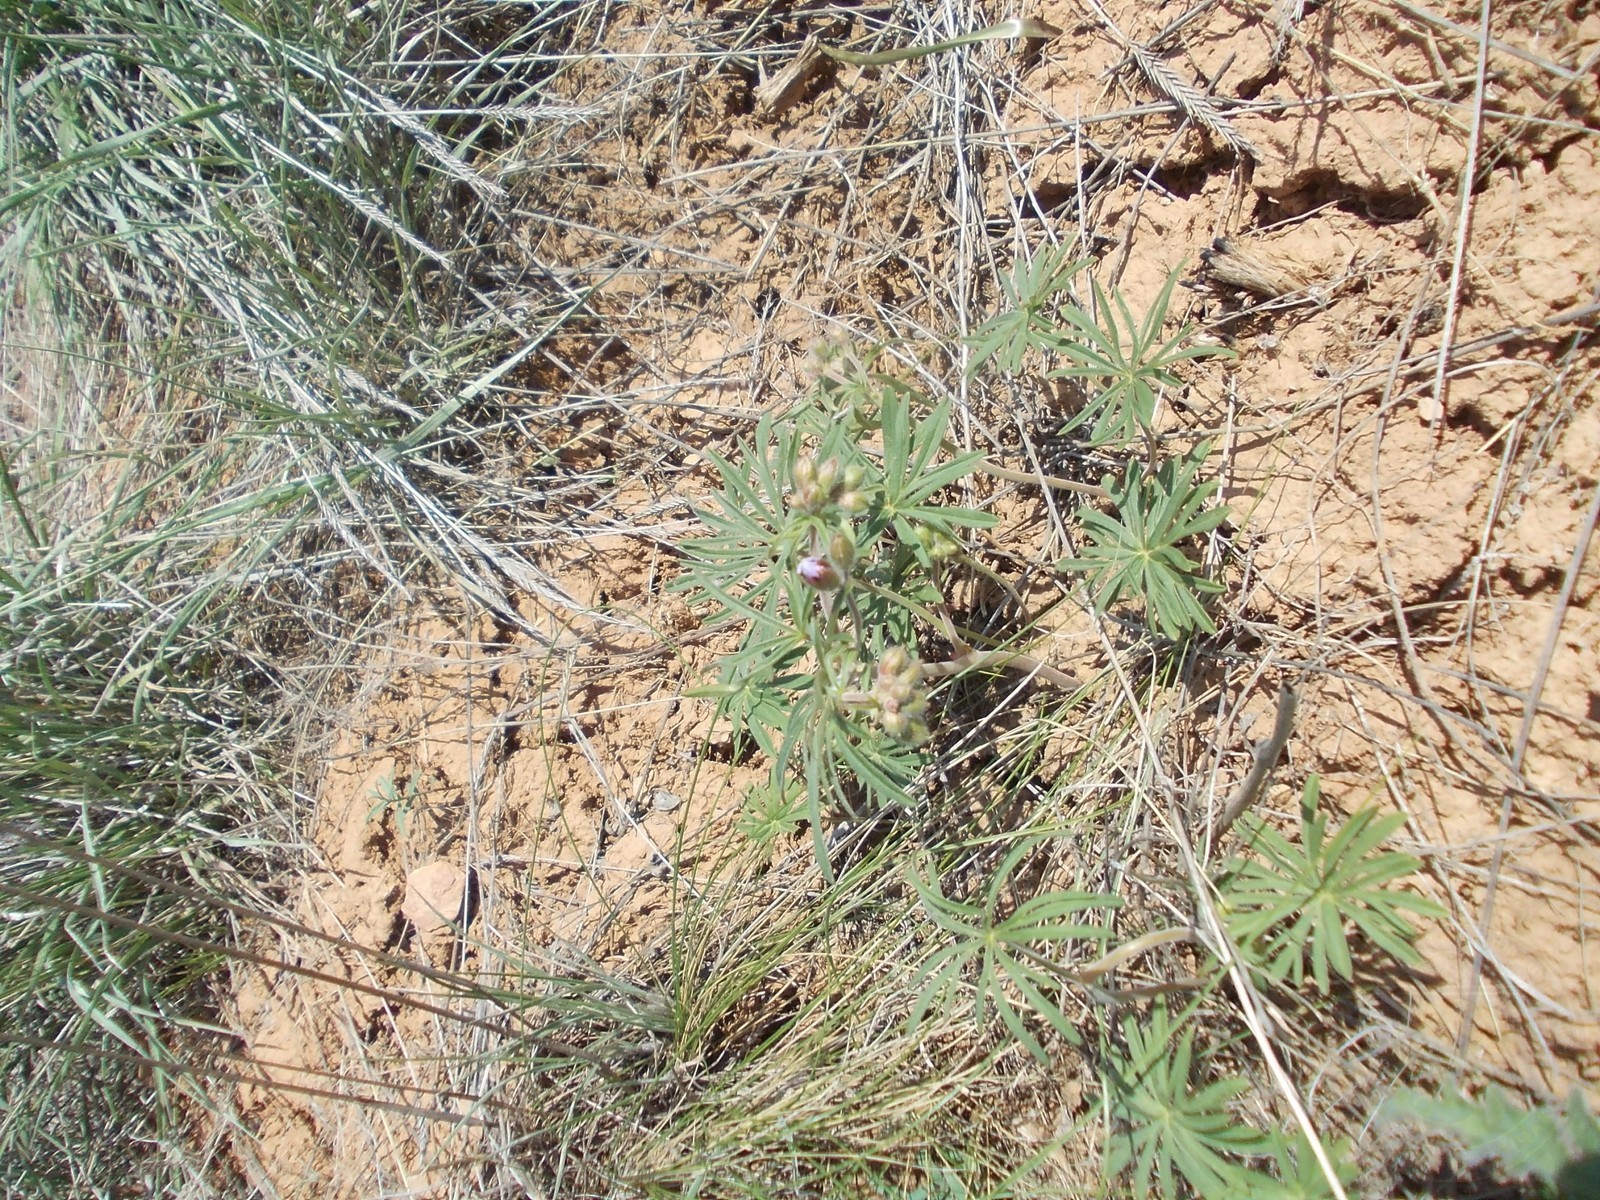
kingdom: Plantae
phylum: Tracheophyta
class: Magnoliopsida
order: Geraniales
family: Geraniaceae
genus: Geranium
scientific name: Geranium linearilobum
